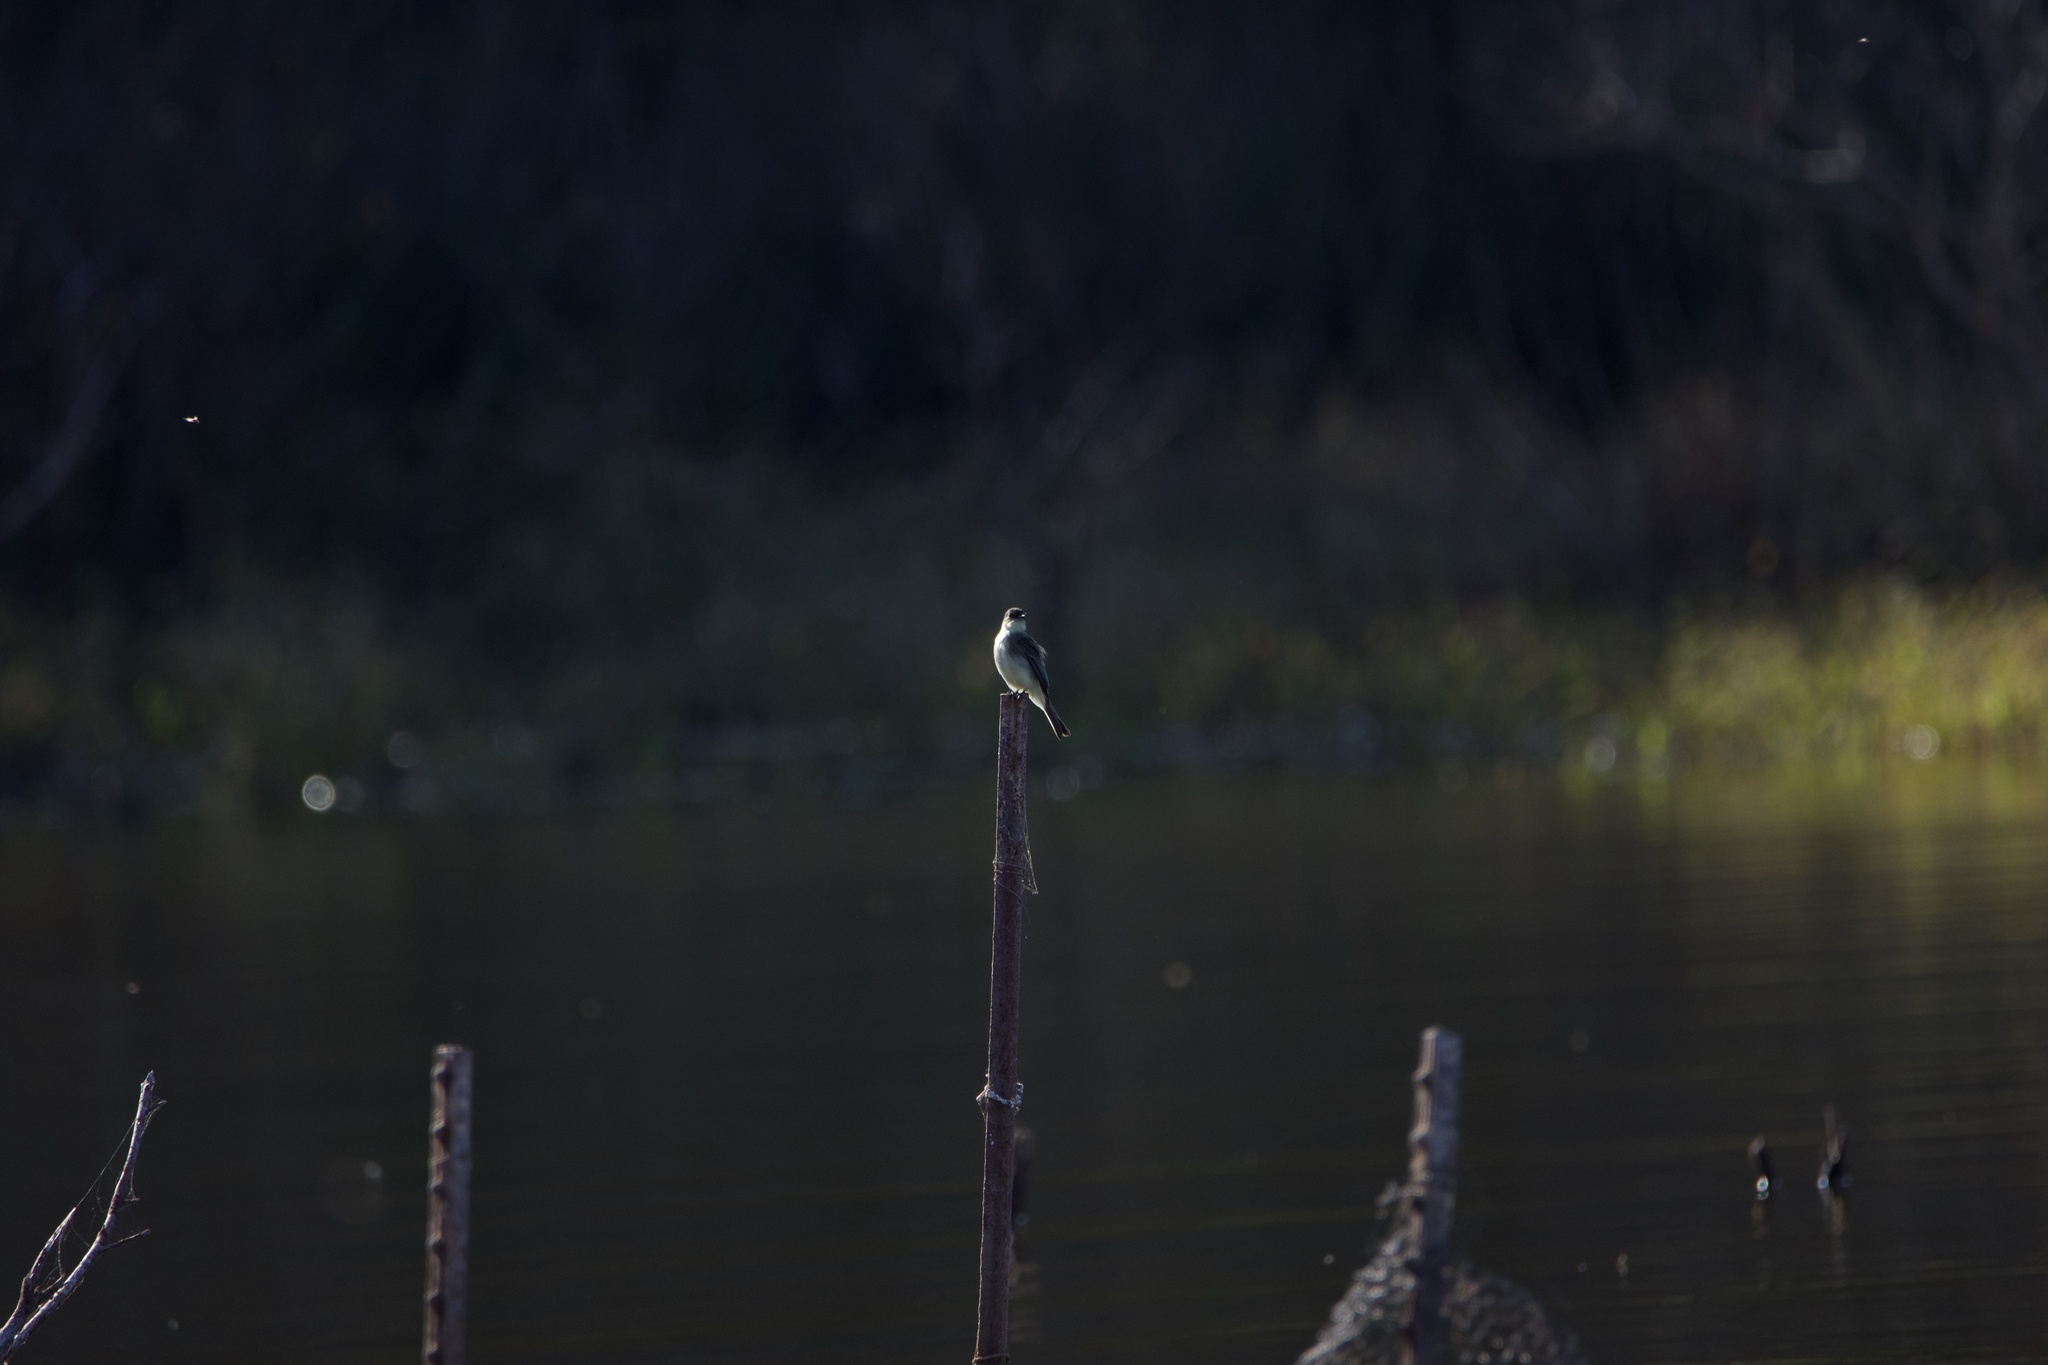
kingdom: Animalia
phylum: Chordata
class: Aves
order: Passeriformes
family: Tyrannidae
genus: Sayornis
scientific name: Sayornis phoebe
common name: Eastern phoebe
